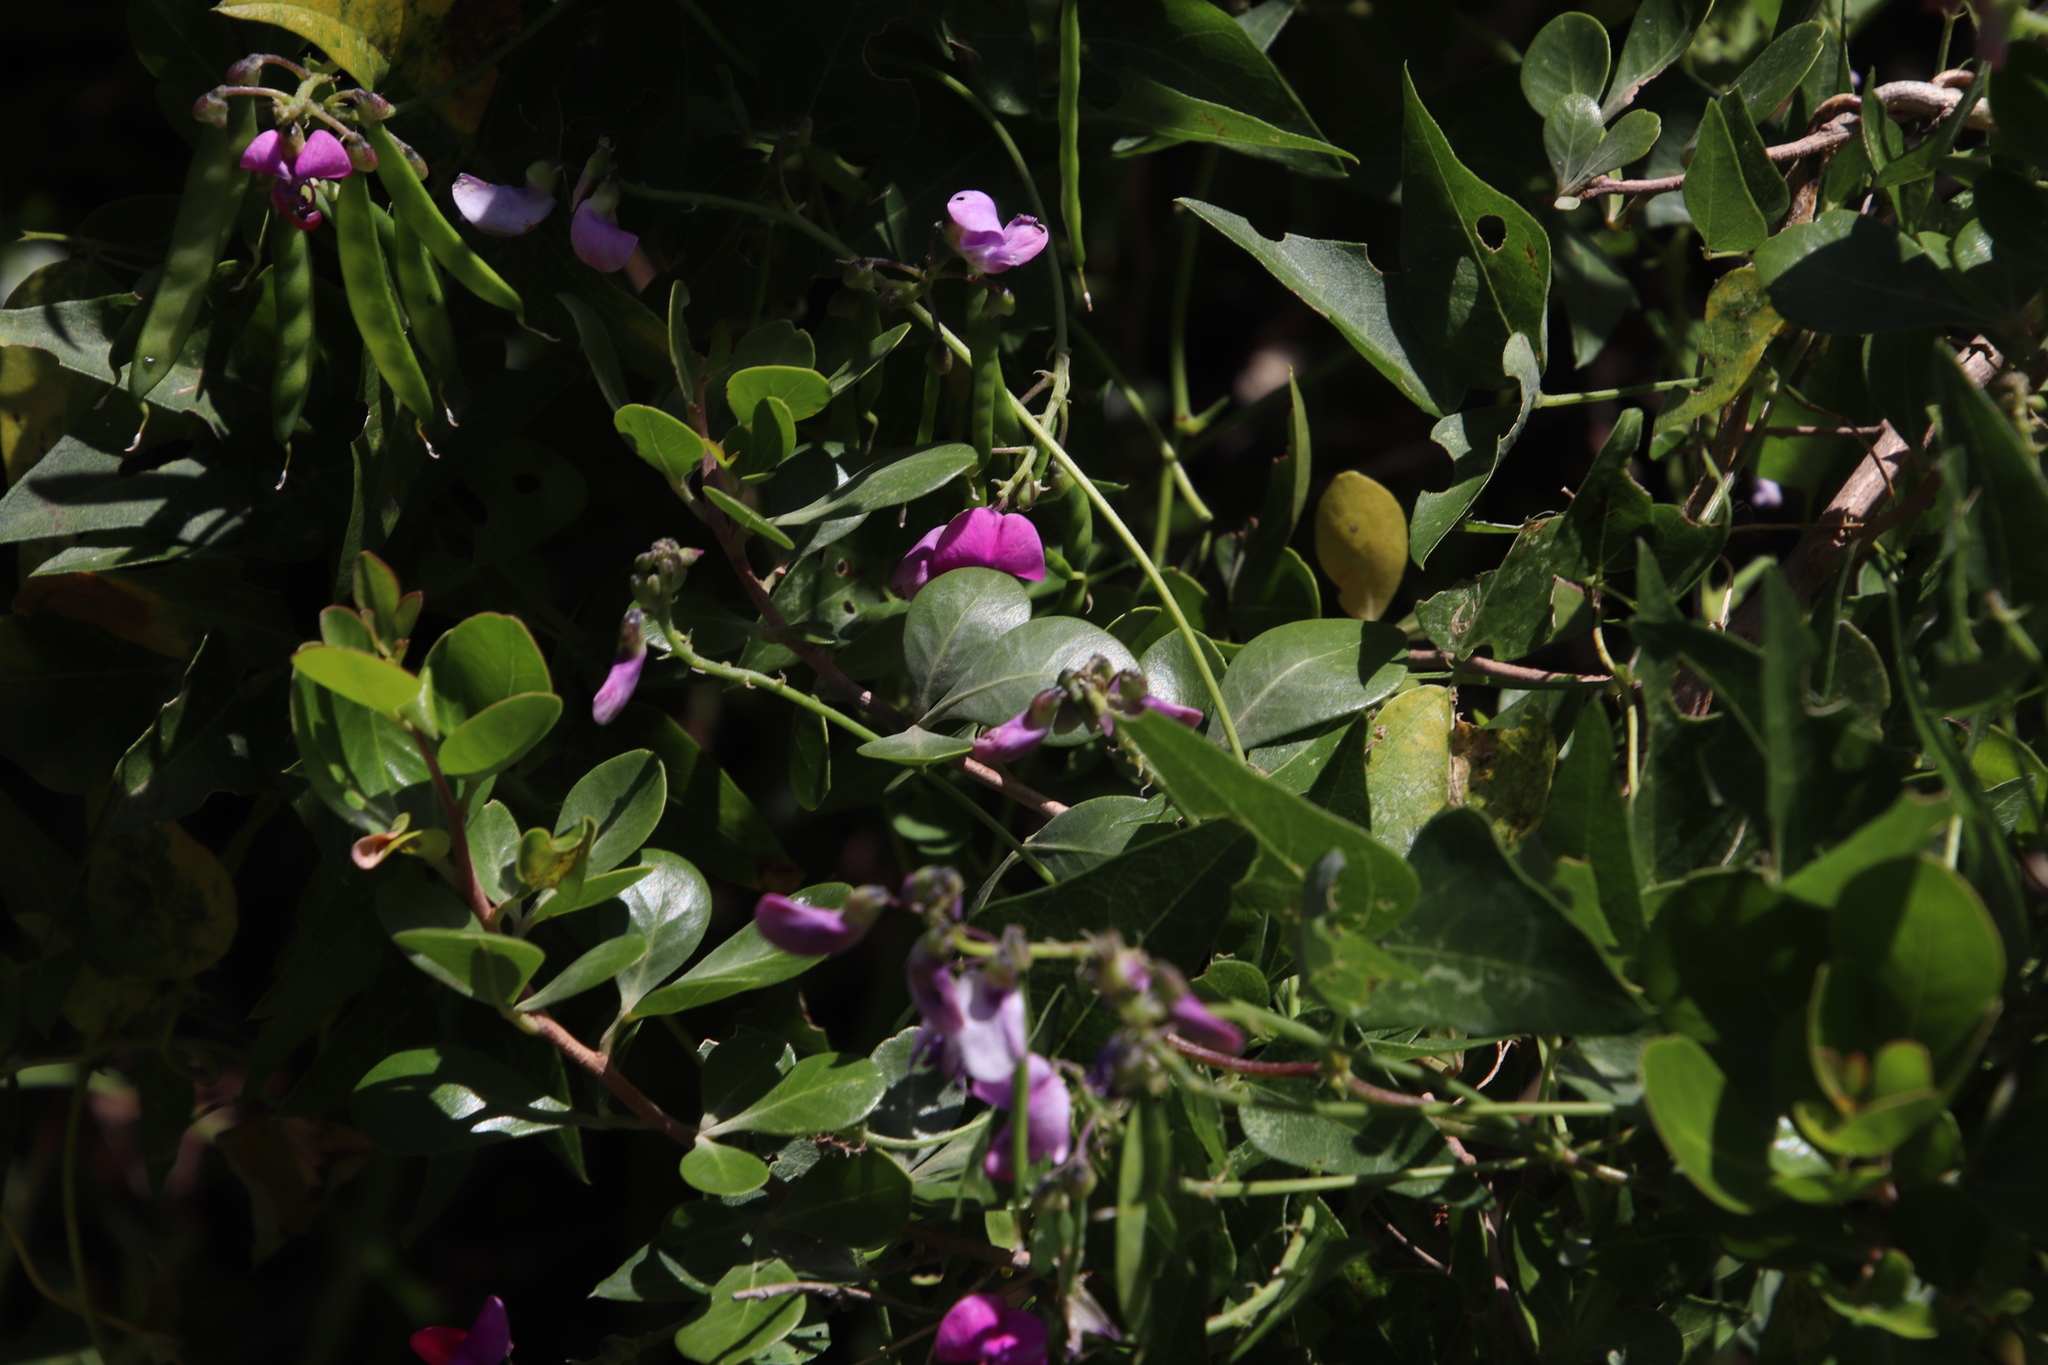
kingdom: Plantae
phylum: Tracheophyta
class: Magnoliopsida
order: Fabales
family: Fabaceae
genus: Dipogon
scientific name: Dipogon lignosus
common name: Okie bean
